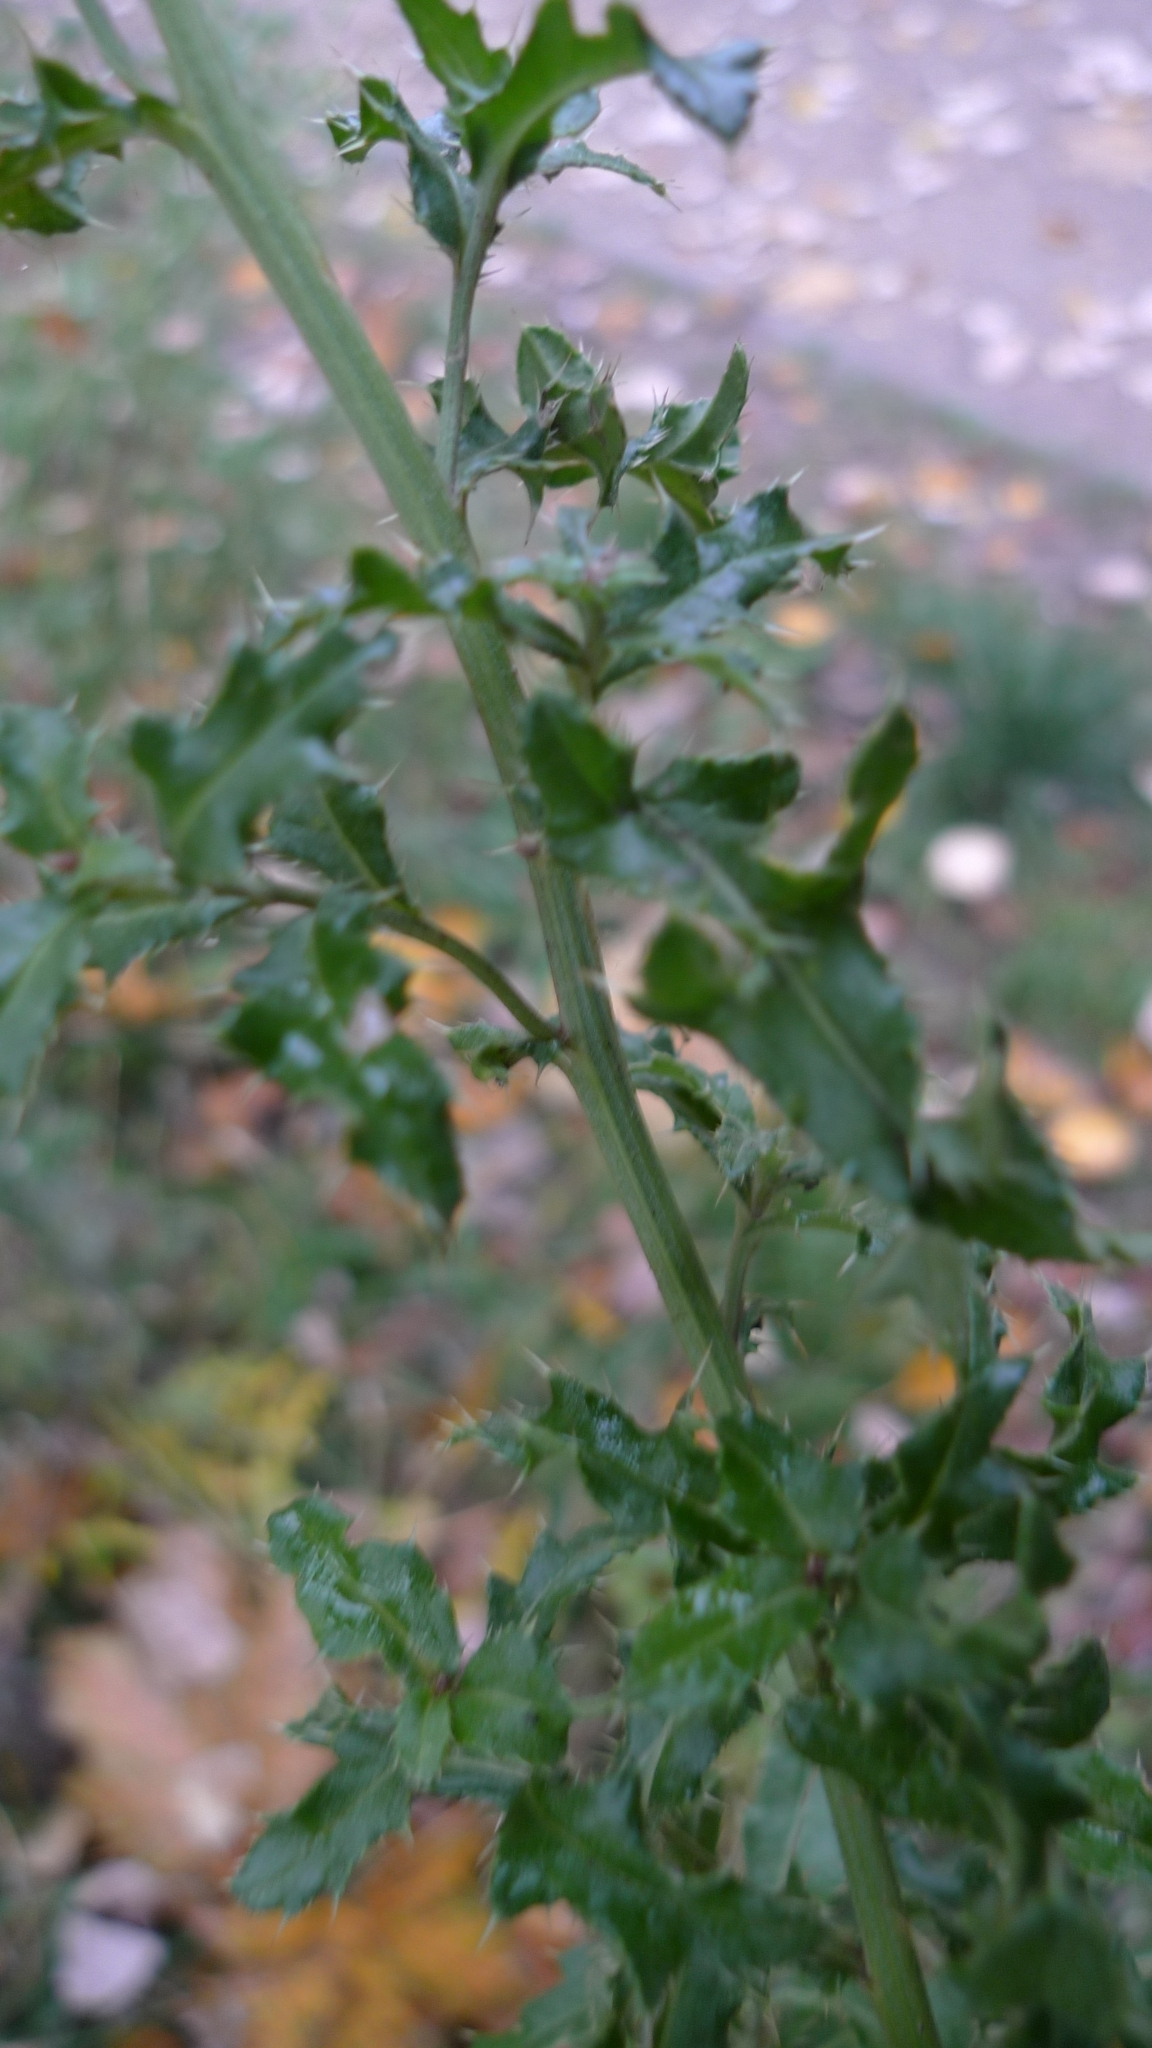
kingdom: Plantae
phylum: Tracheophyta
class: Magnoliopsida
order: Asterales
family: Asteraceae
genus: Cirsium
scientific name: Cirsium arvense
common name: Creeping thistle
